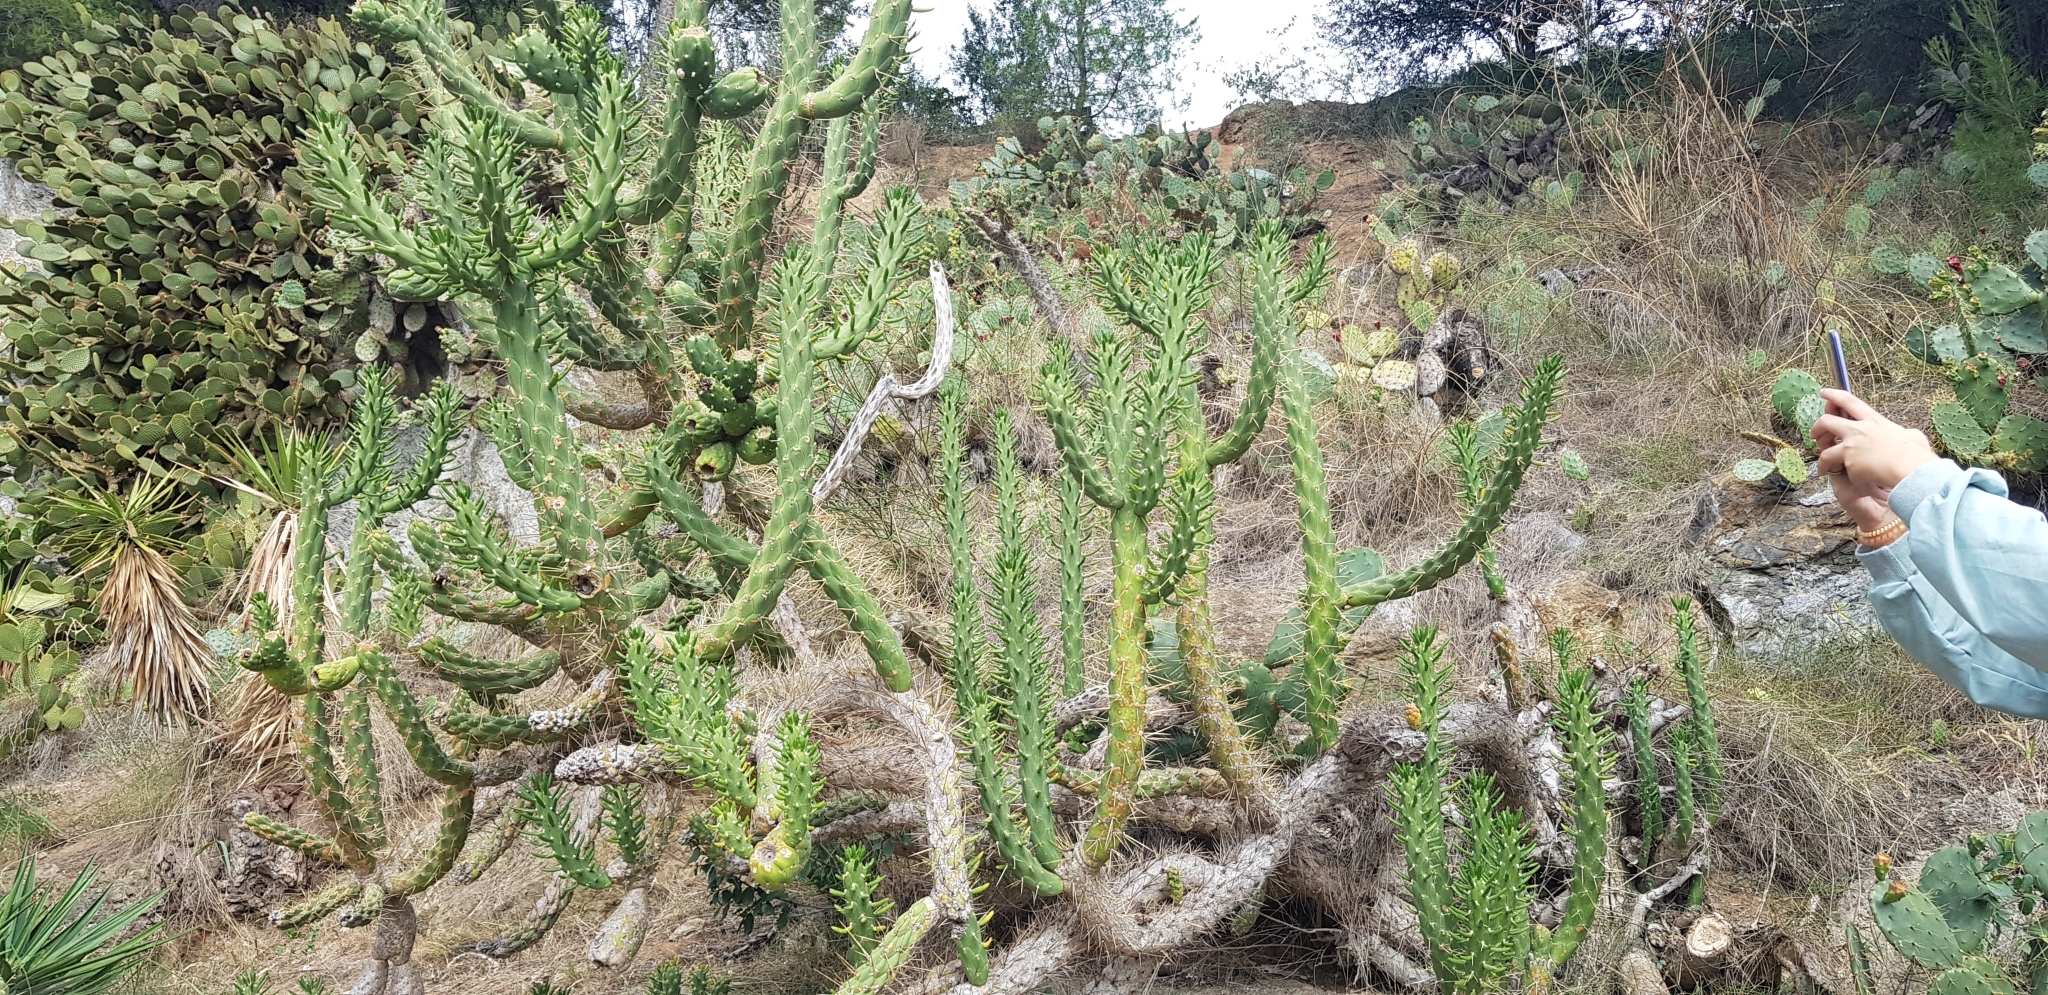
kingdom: Plantae
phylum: Tracheophyta
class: Magnoliopsida
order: Caryophyllales
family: Cactaceae
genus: Austrocylindropuntia
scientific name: Austrocylindropuntia subulata
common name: Eve's needle cactus
